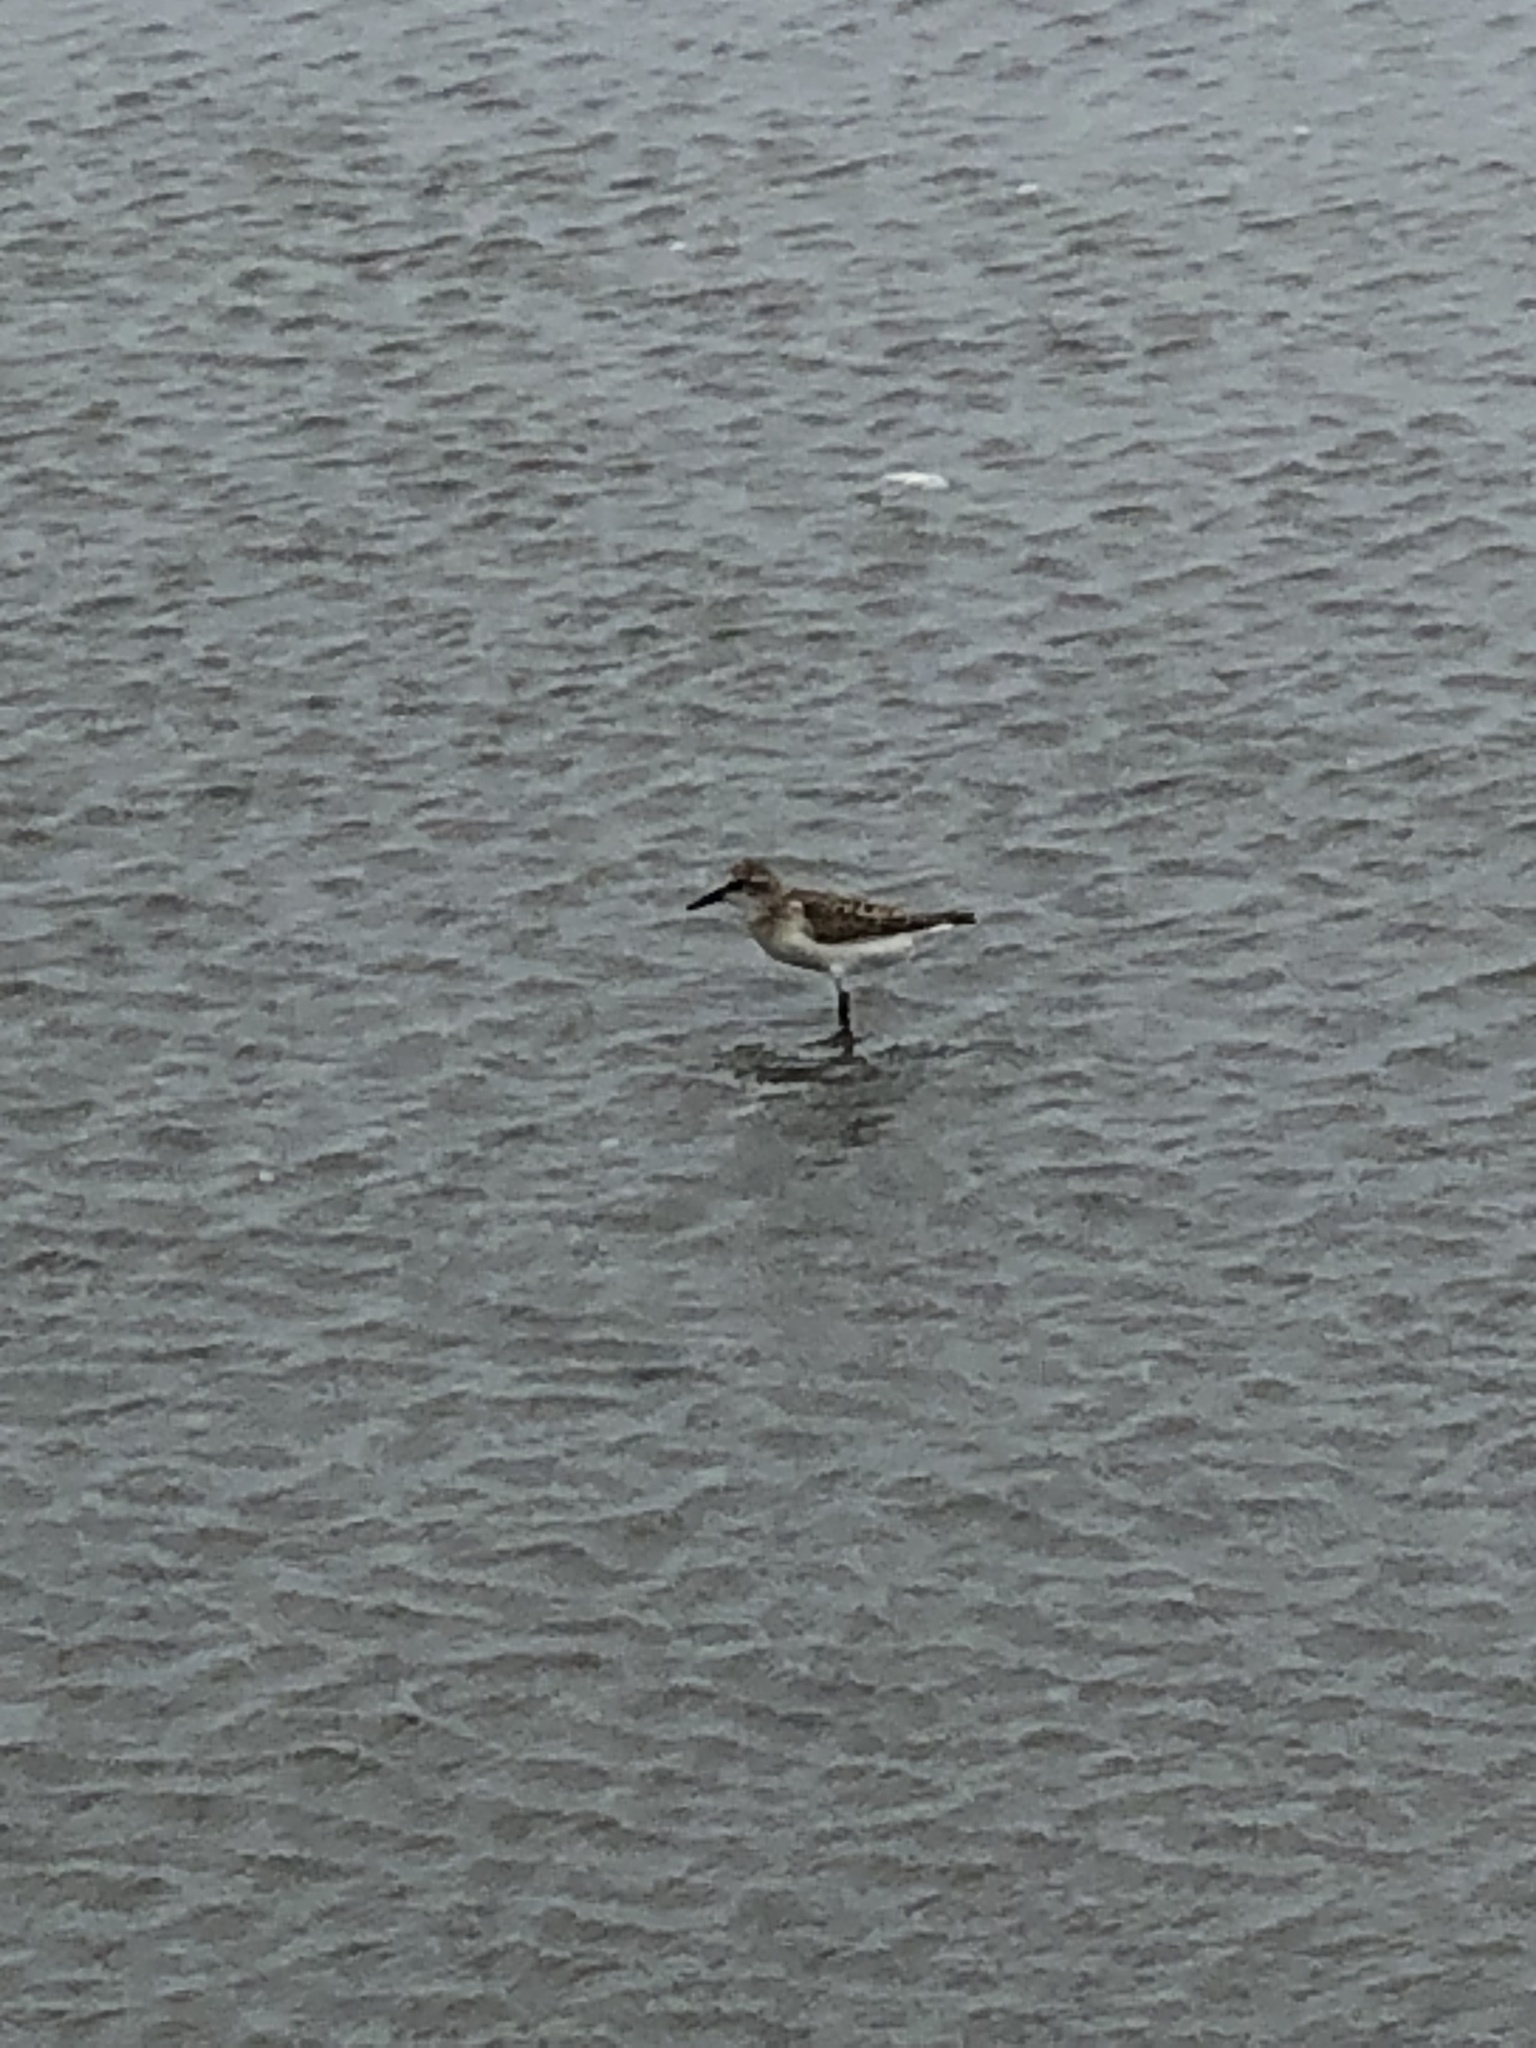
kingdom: Animalia
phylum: Chordata
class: Aves
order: Charadriiformes
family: Scolopacidae
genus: Calidris
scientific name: Calidris pusilla
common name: Semipalmated sandpiper
